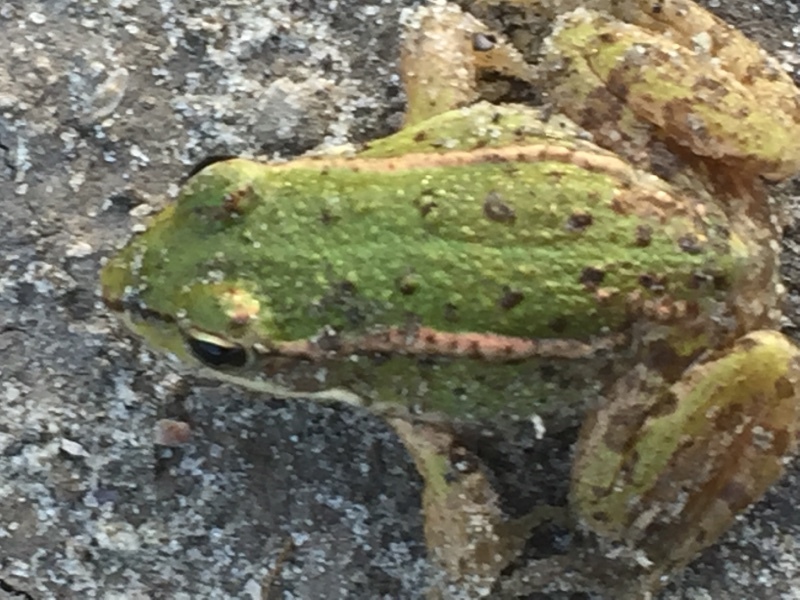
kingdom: Animalia
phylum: Chordata
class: Amphibia
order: Anura
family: Ranidae
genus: Pelophylax
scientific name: Pelophylax
